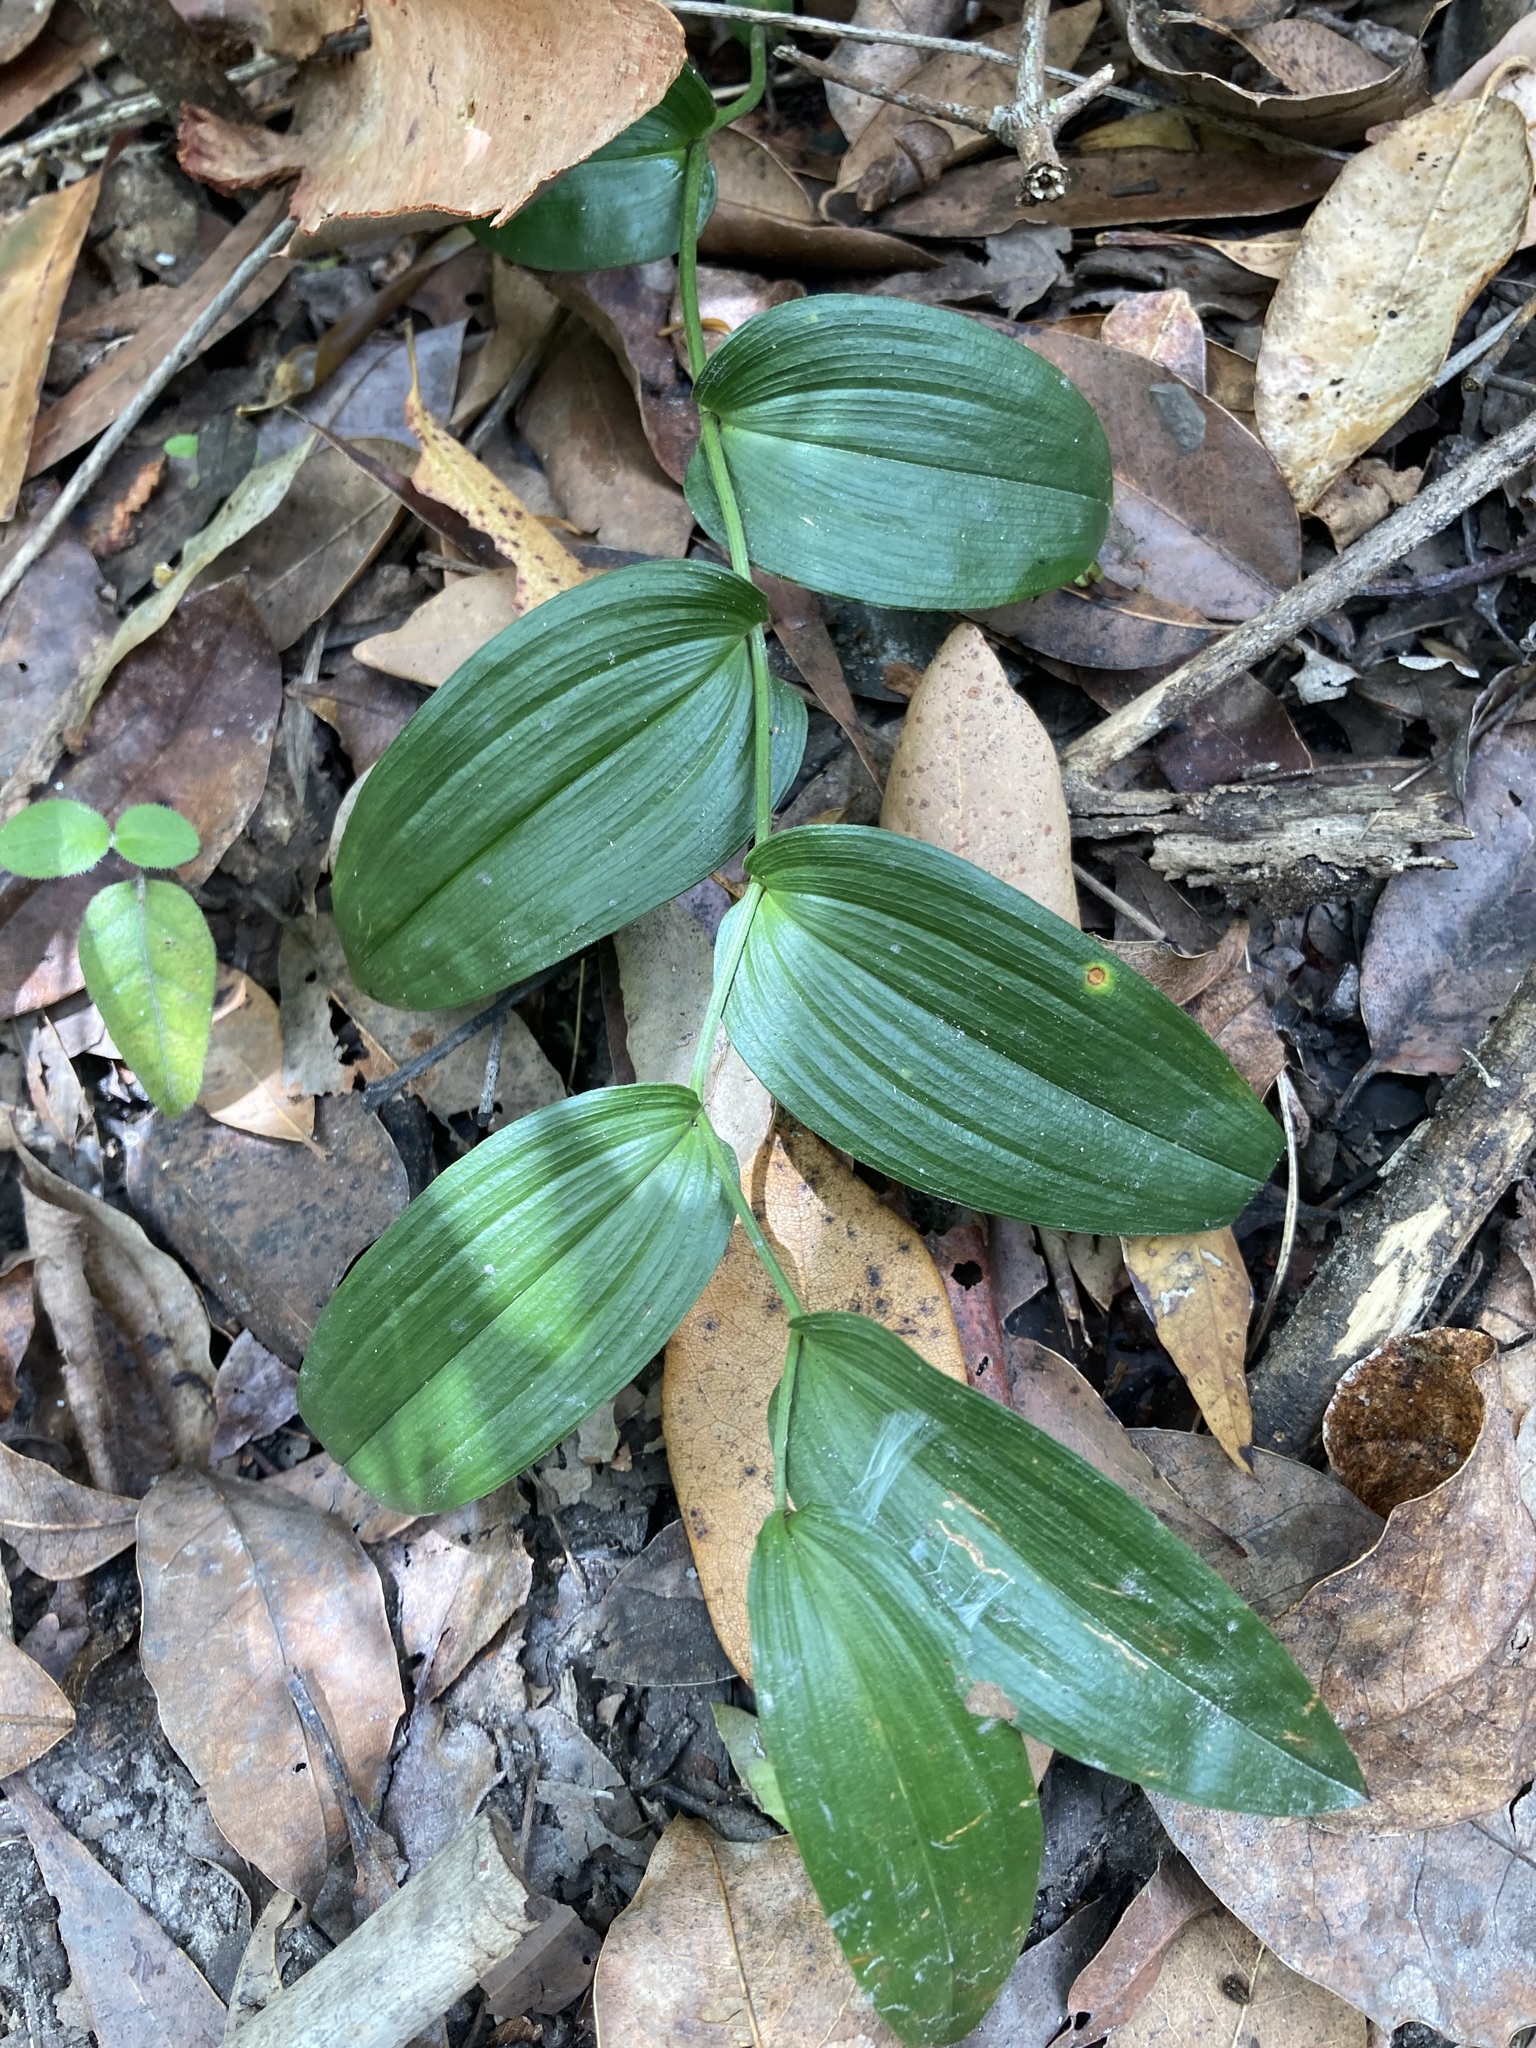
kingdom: Plantae
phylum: Tracheophyta
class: Liliopsida
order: Liliales
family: Colchicaceae
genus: Tripladenia
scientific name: Tripladenia cunninghamii
